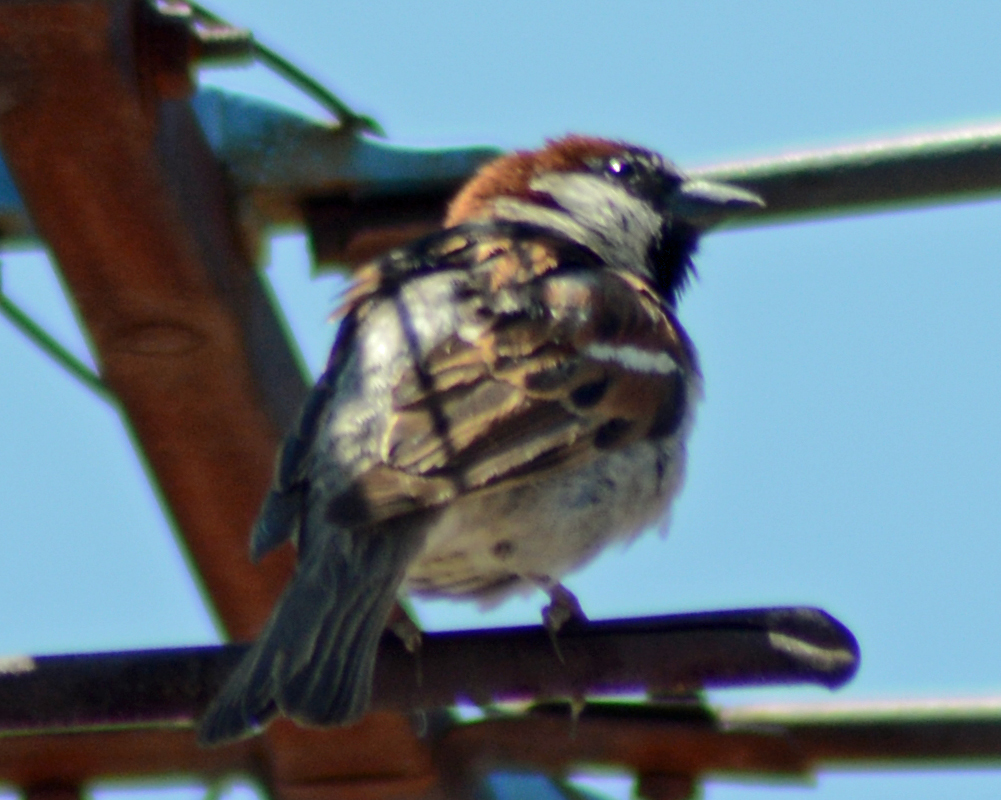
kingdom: Animalia
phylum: Chordata
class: Aves
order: Passeriformes
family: Passeridae
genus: Passer
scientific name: Passer domesticus
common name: House sparrow
